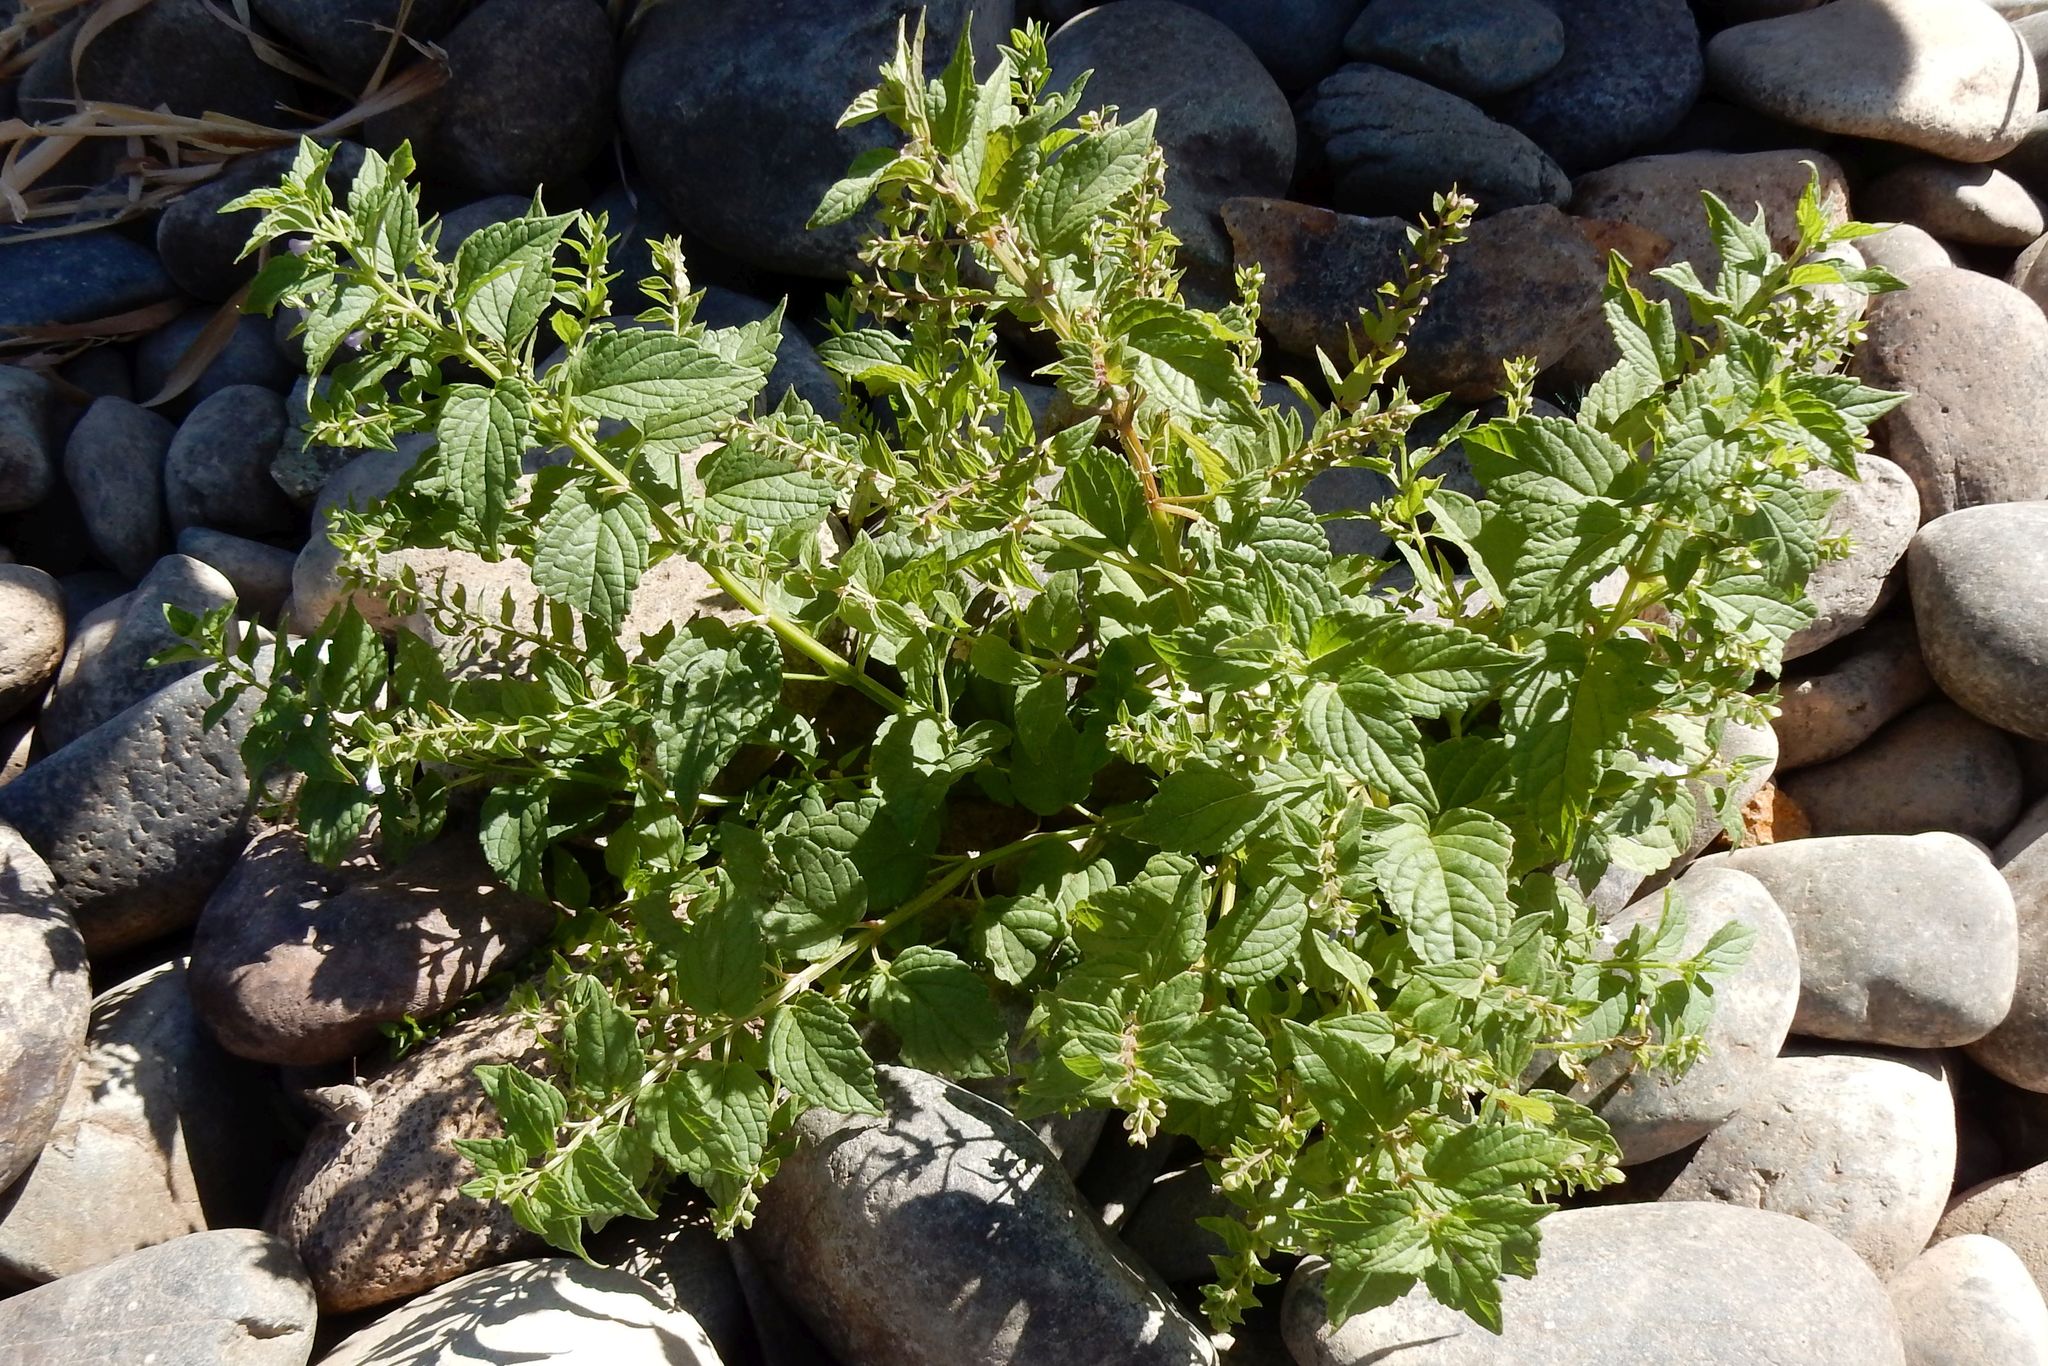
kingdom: Plantae
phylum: Tracheophyta
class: Magnoliopsida
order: Lamiales
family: Lamiaceae
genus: Scutellaria
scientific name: Scutellaria lateriflora
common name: Blue skullcap
